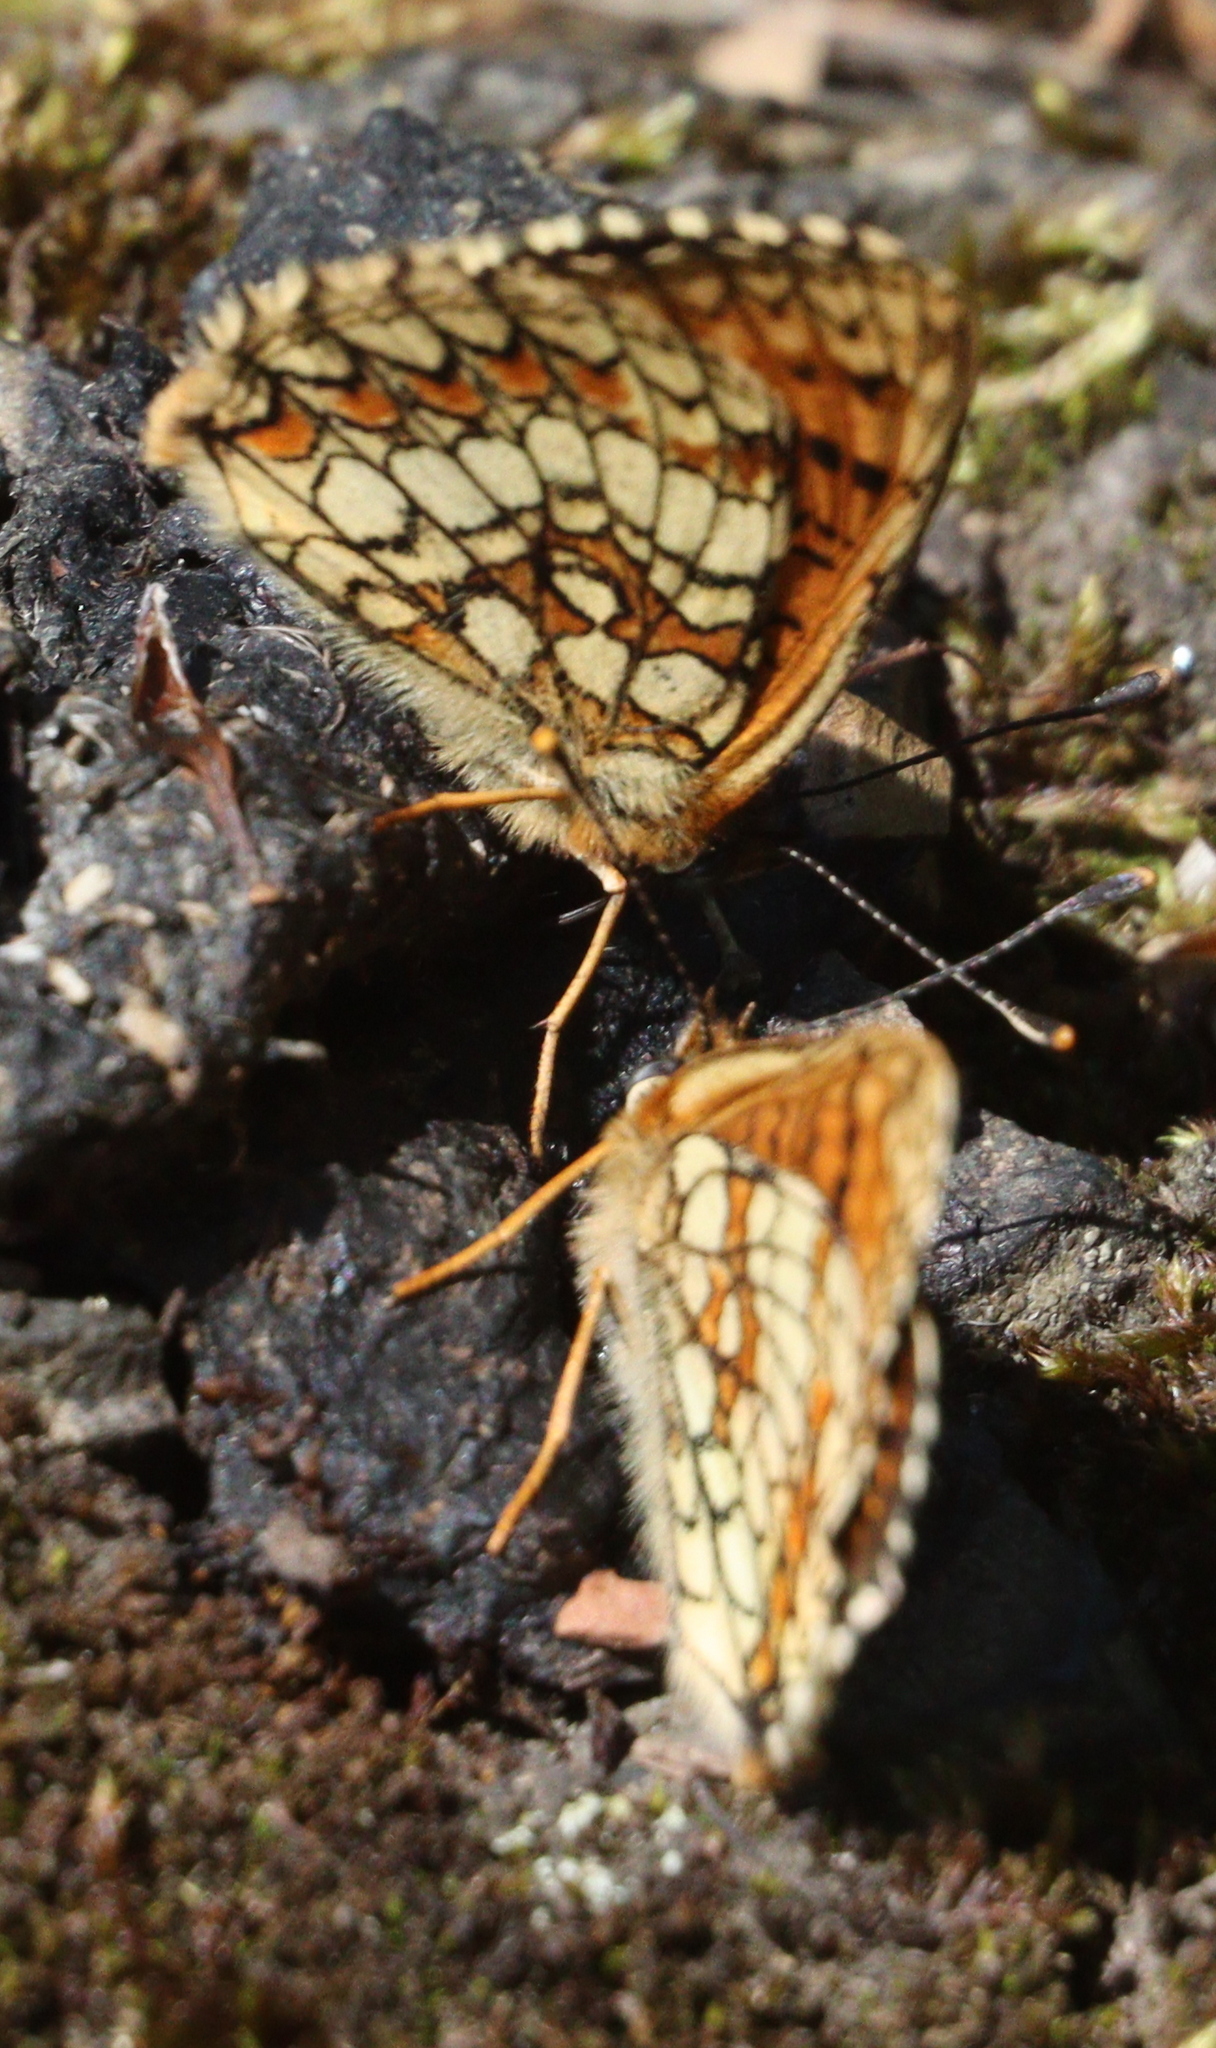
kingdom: Animalia
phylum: Arthropoda
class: Insecta
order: Lepidoptera
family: Nymphalidae
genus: Melitaea
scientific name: Melitaea athalia
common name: Heath fritillary
